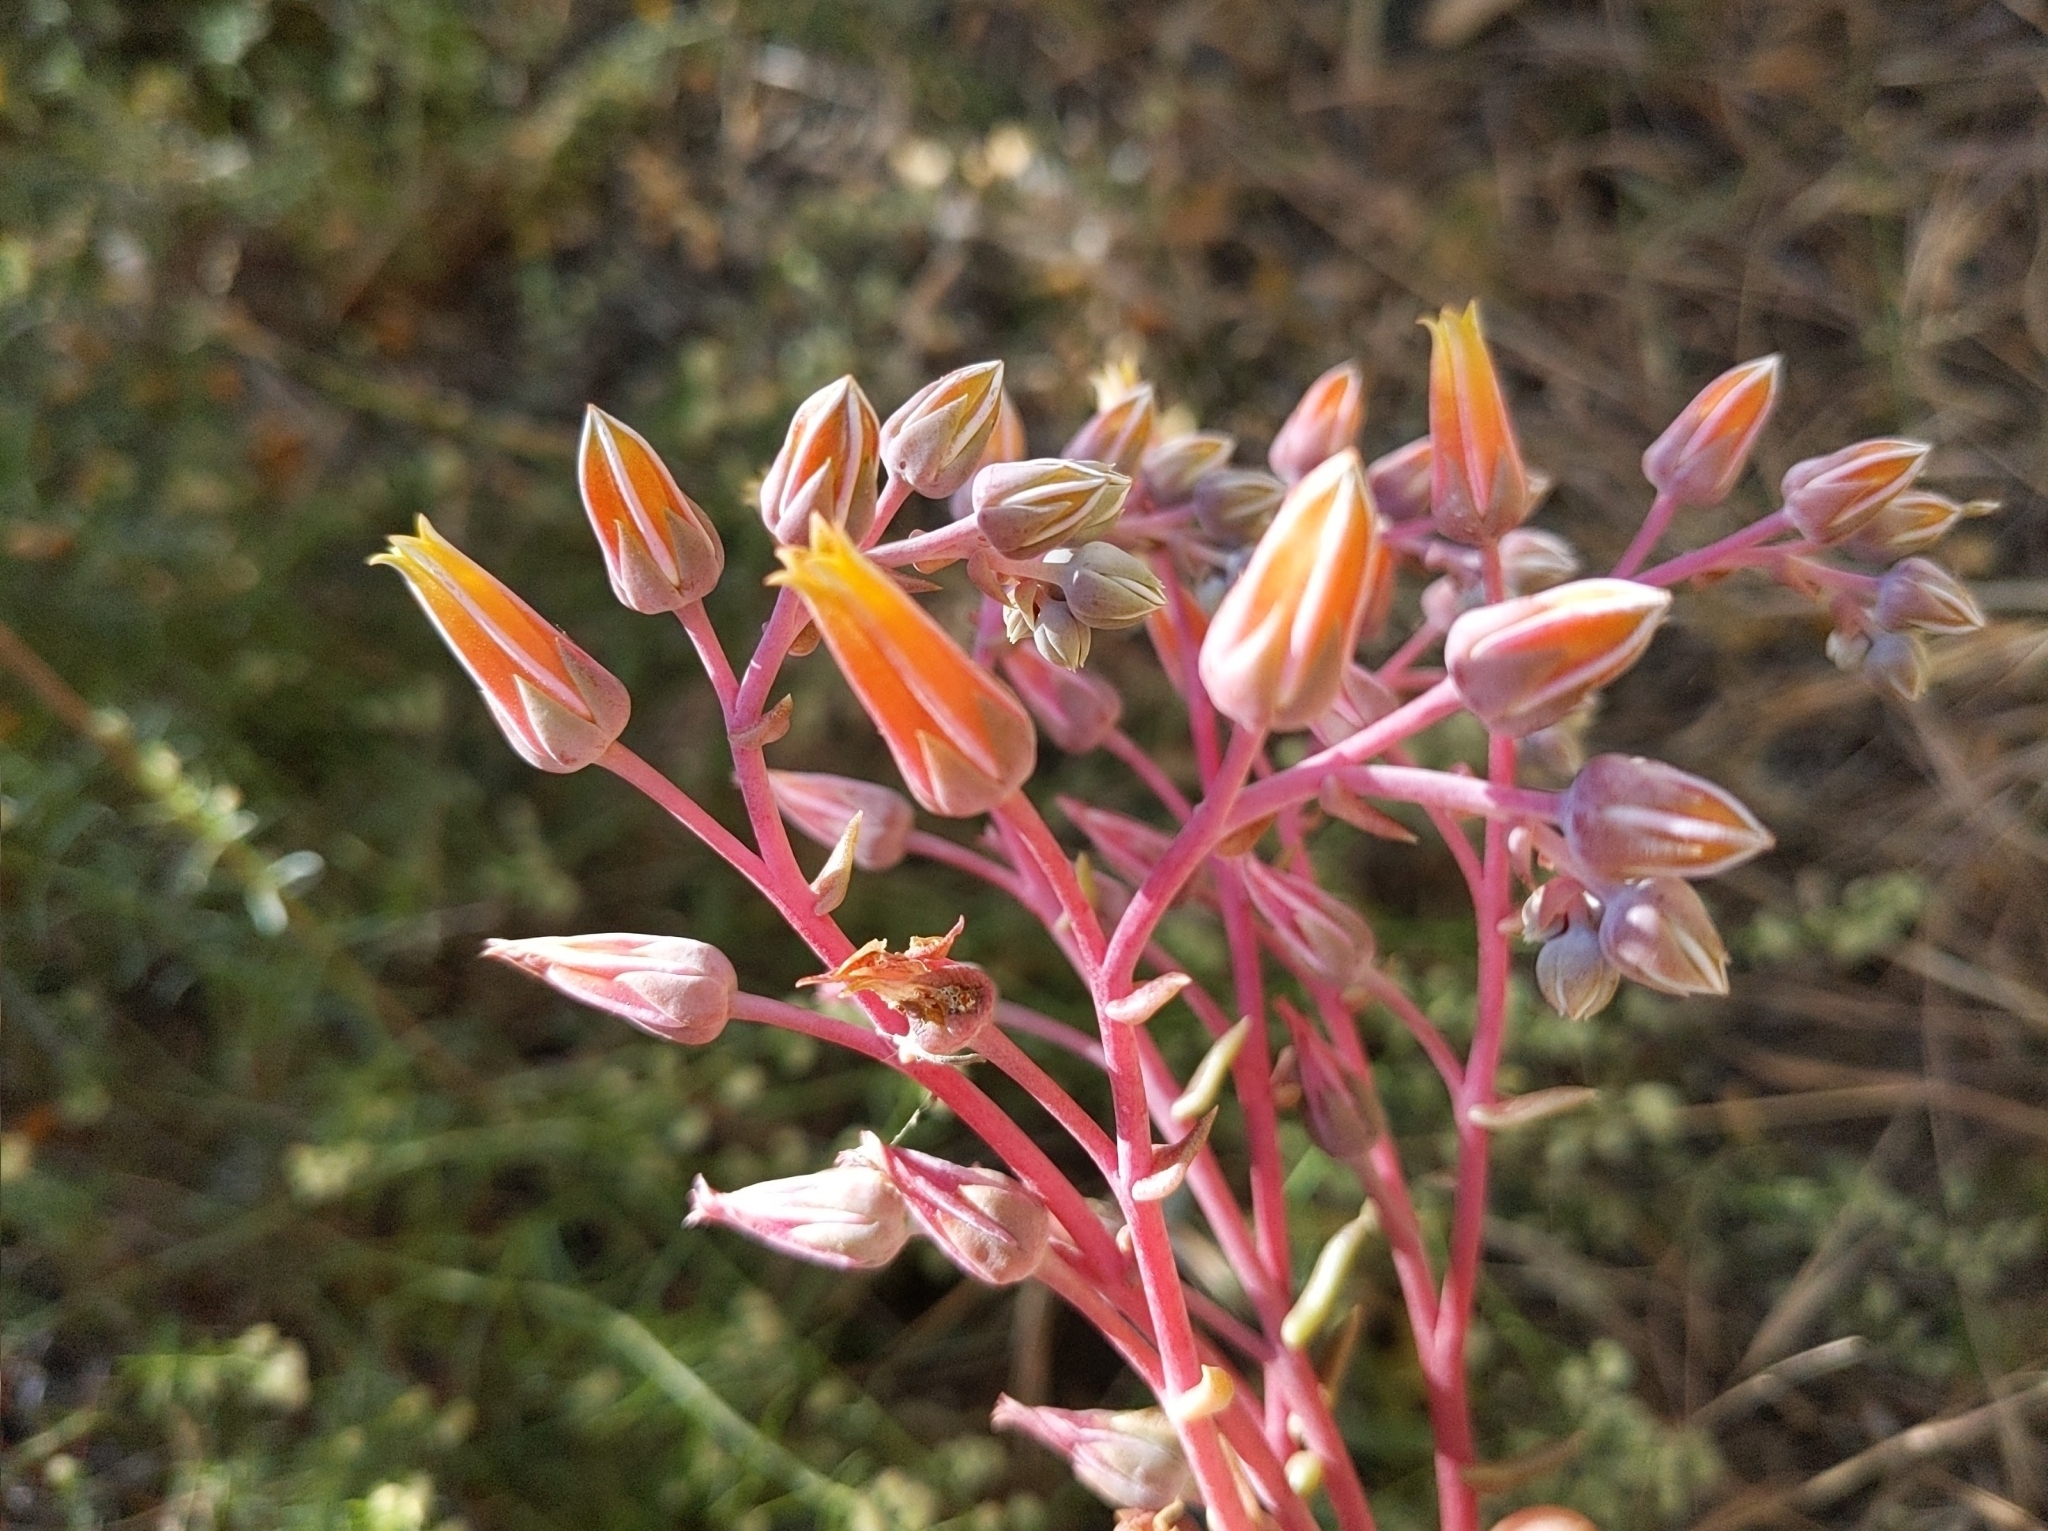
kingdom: Plantae
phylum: Tracheophyta
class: Magnoliopsida
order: Saxifragales
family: Crassulaceae
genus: Dudleya
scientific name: Dudleya lanceolata
